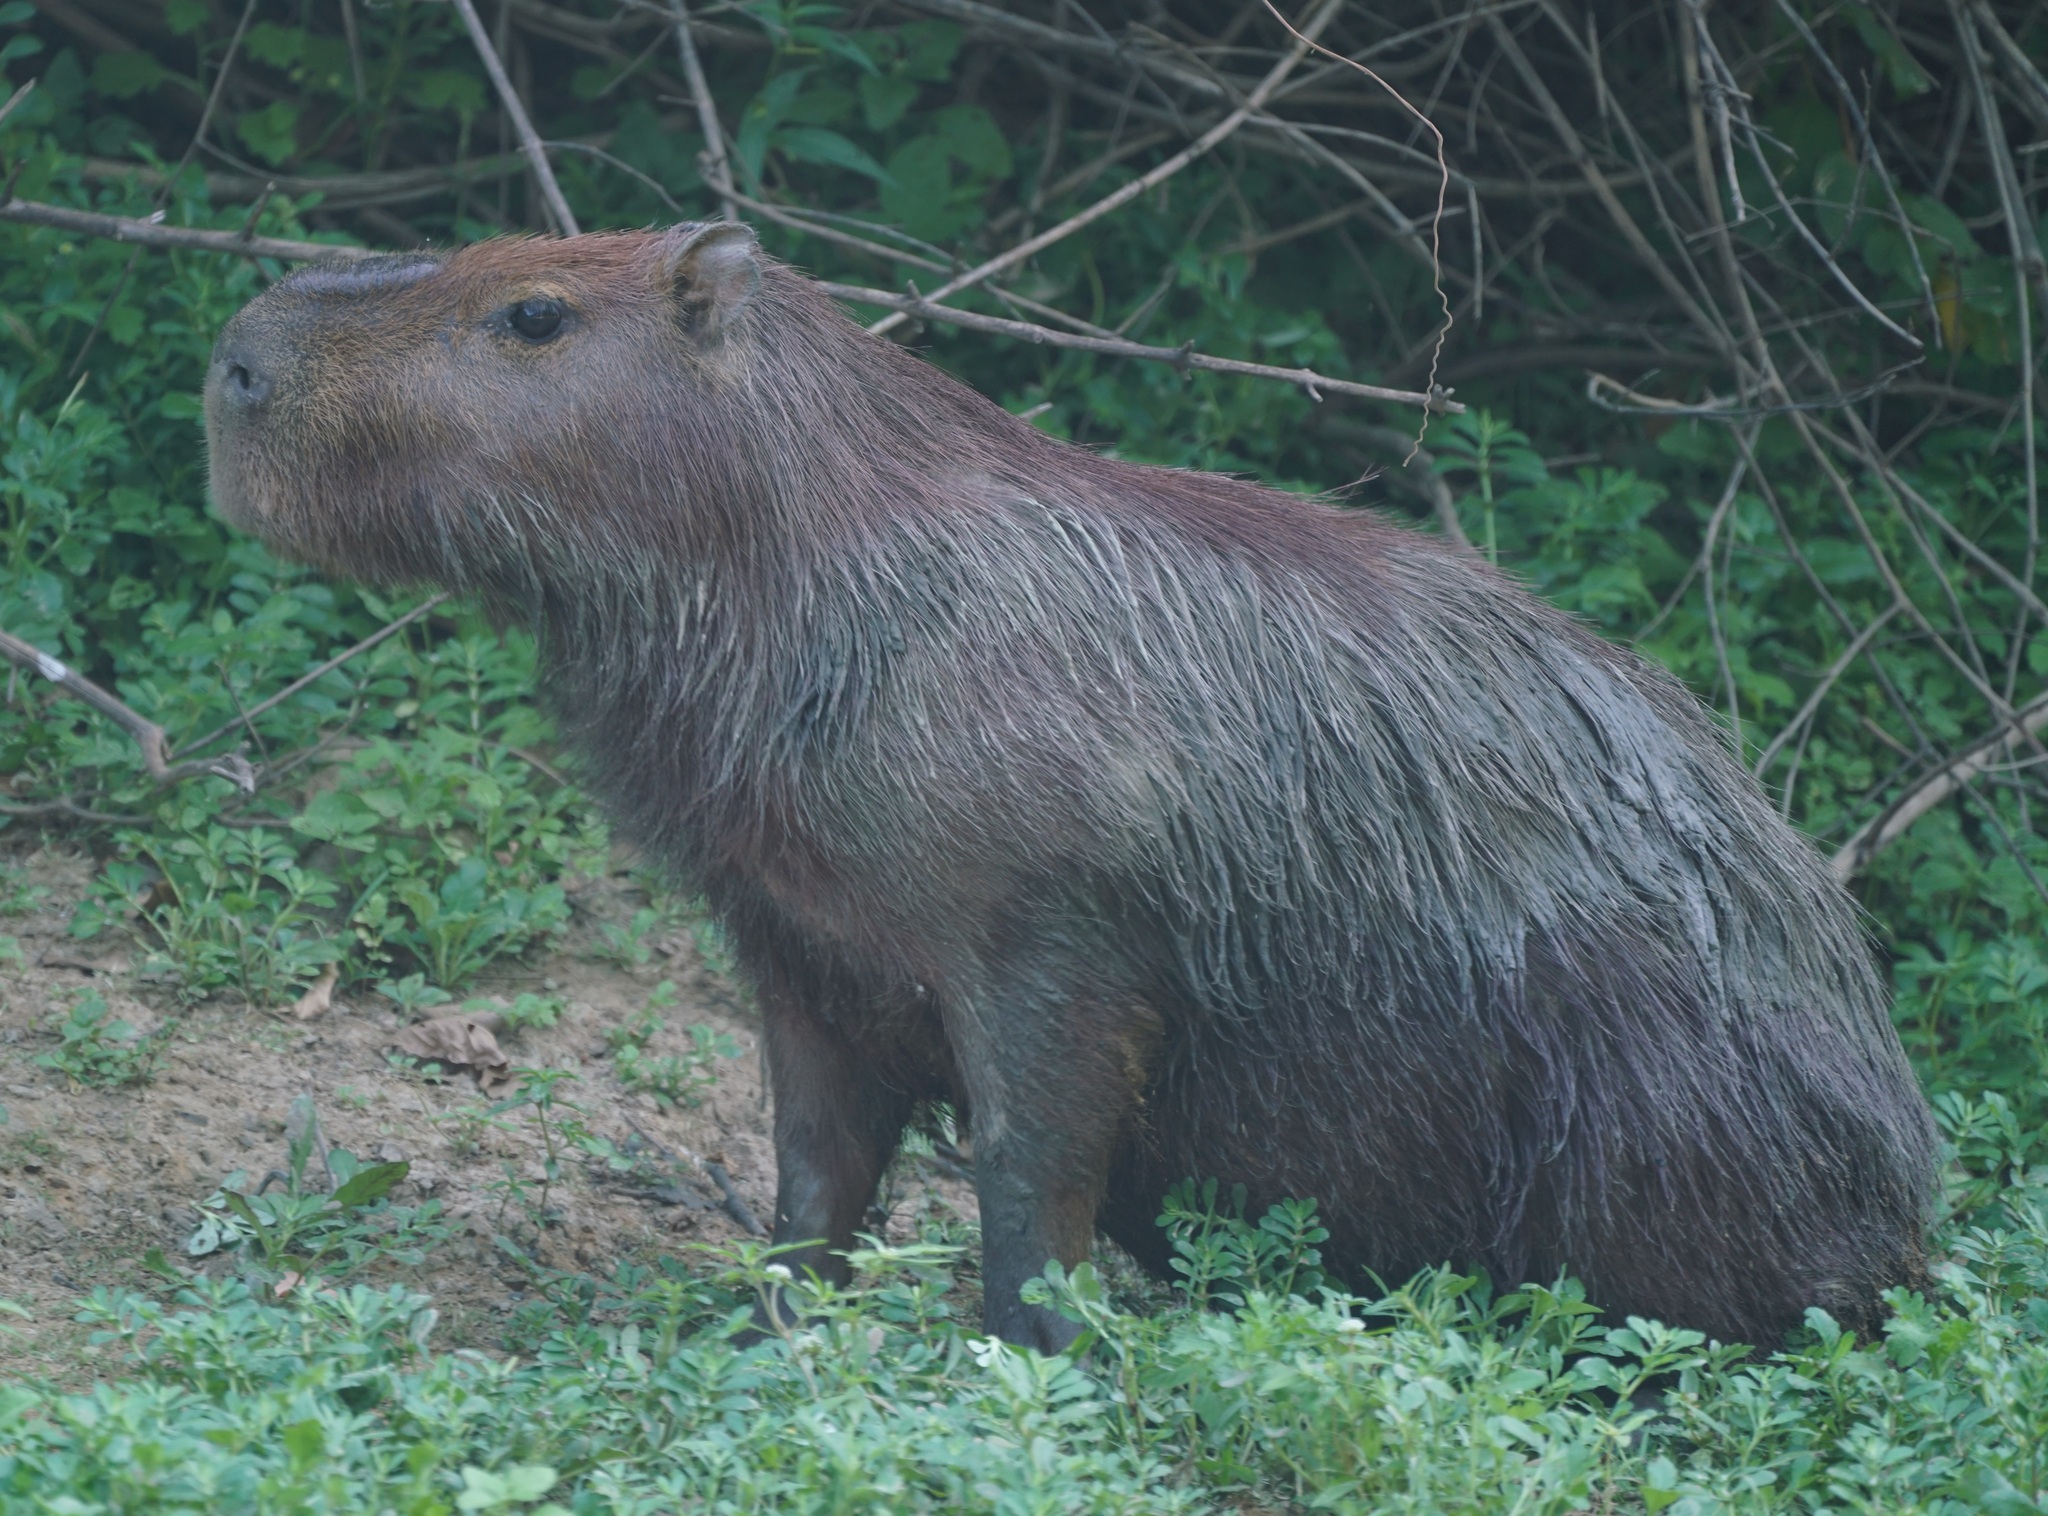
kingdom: Animalia
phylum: Chordata
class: Mammalia
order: Rodentia
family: Caviidae
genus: Hydrochoerus
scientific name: Hydrochoerus hydrochaeris
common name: Capybara
